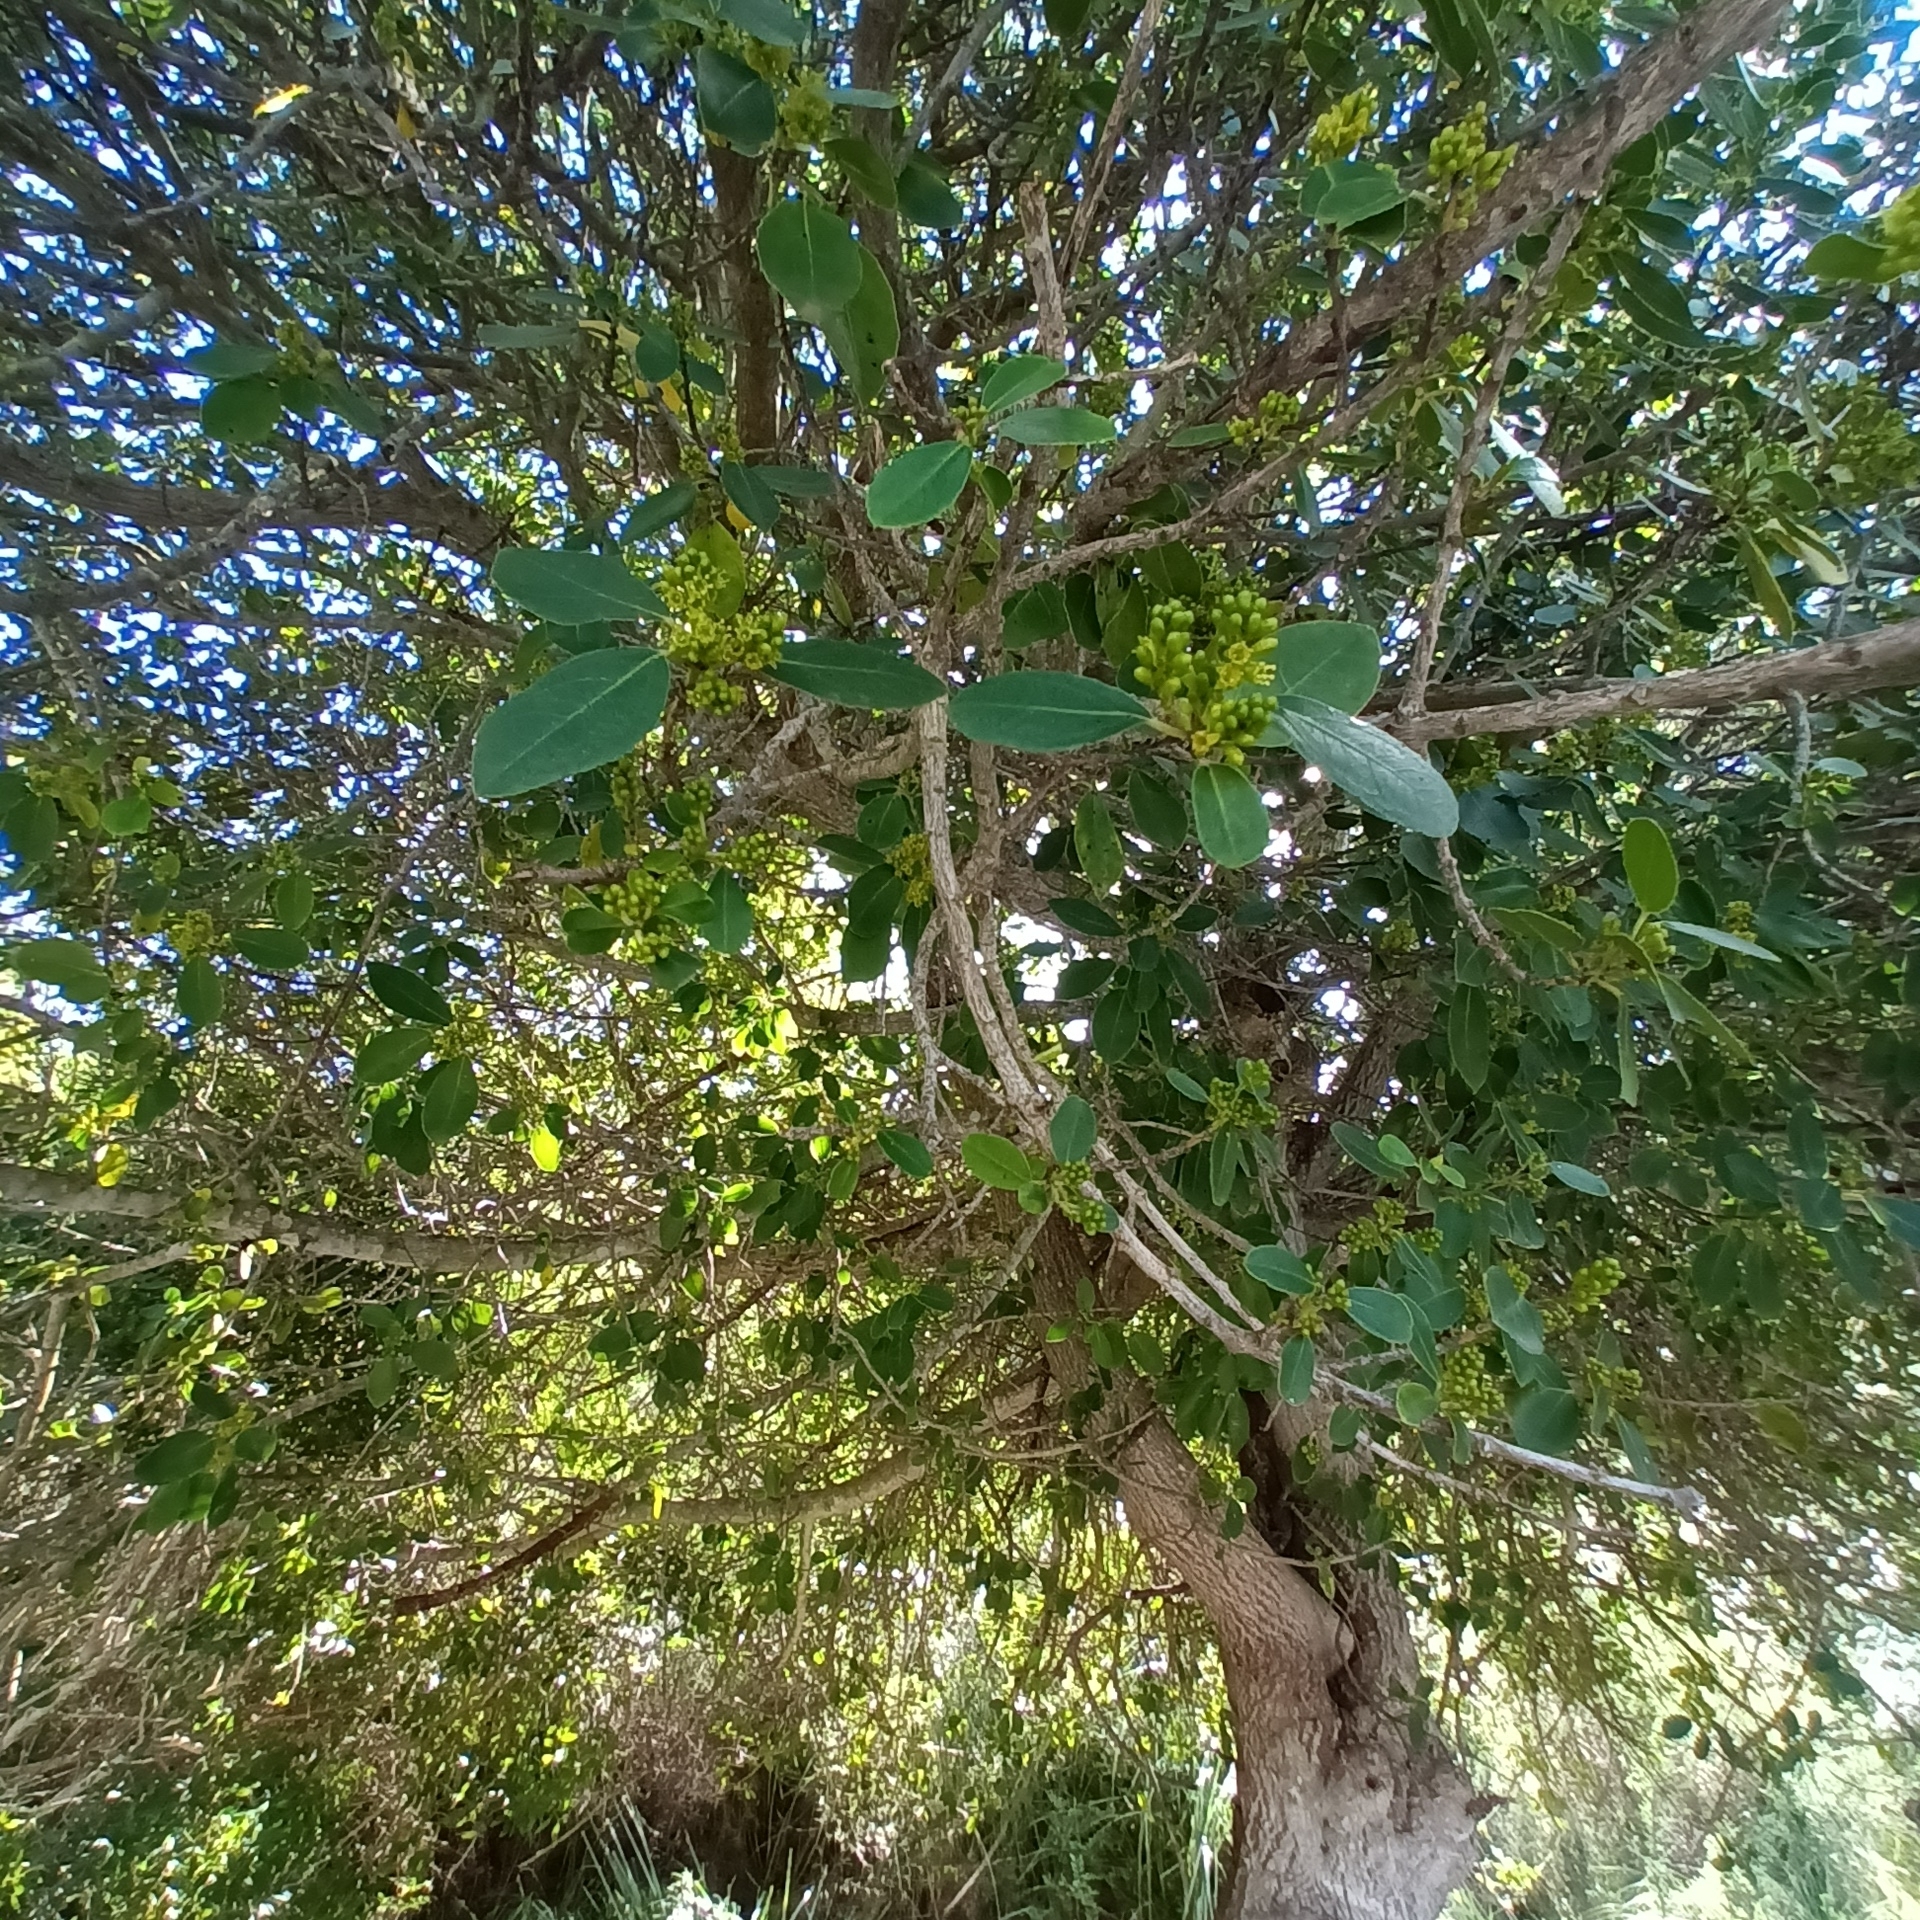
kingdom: Plantae
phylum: Tracheophyta
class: Magnoliopsida
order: Rosales
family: Rhamnaceae
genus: Rhamnus
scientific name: Rhamnus alaternus
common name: Mediterranean buckthorn
